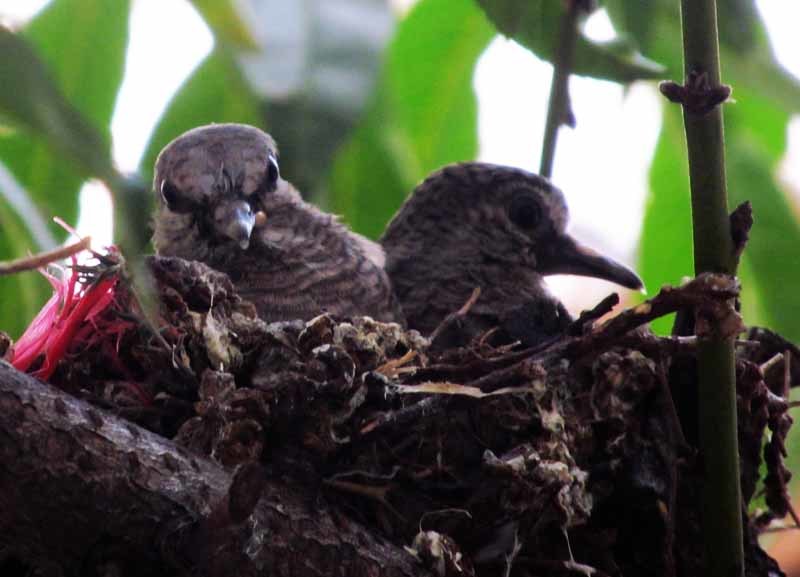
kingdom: Animalia
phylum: Chordata
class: Aves
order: Columbiformes
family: Columbidae
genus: Columbina
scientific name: Columbina inca
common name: Inca dove
